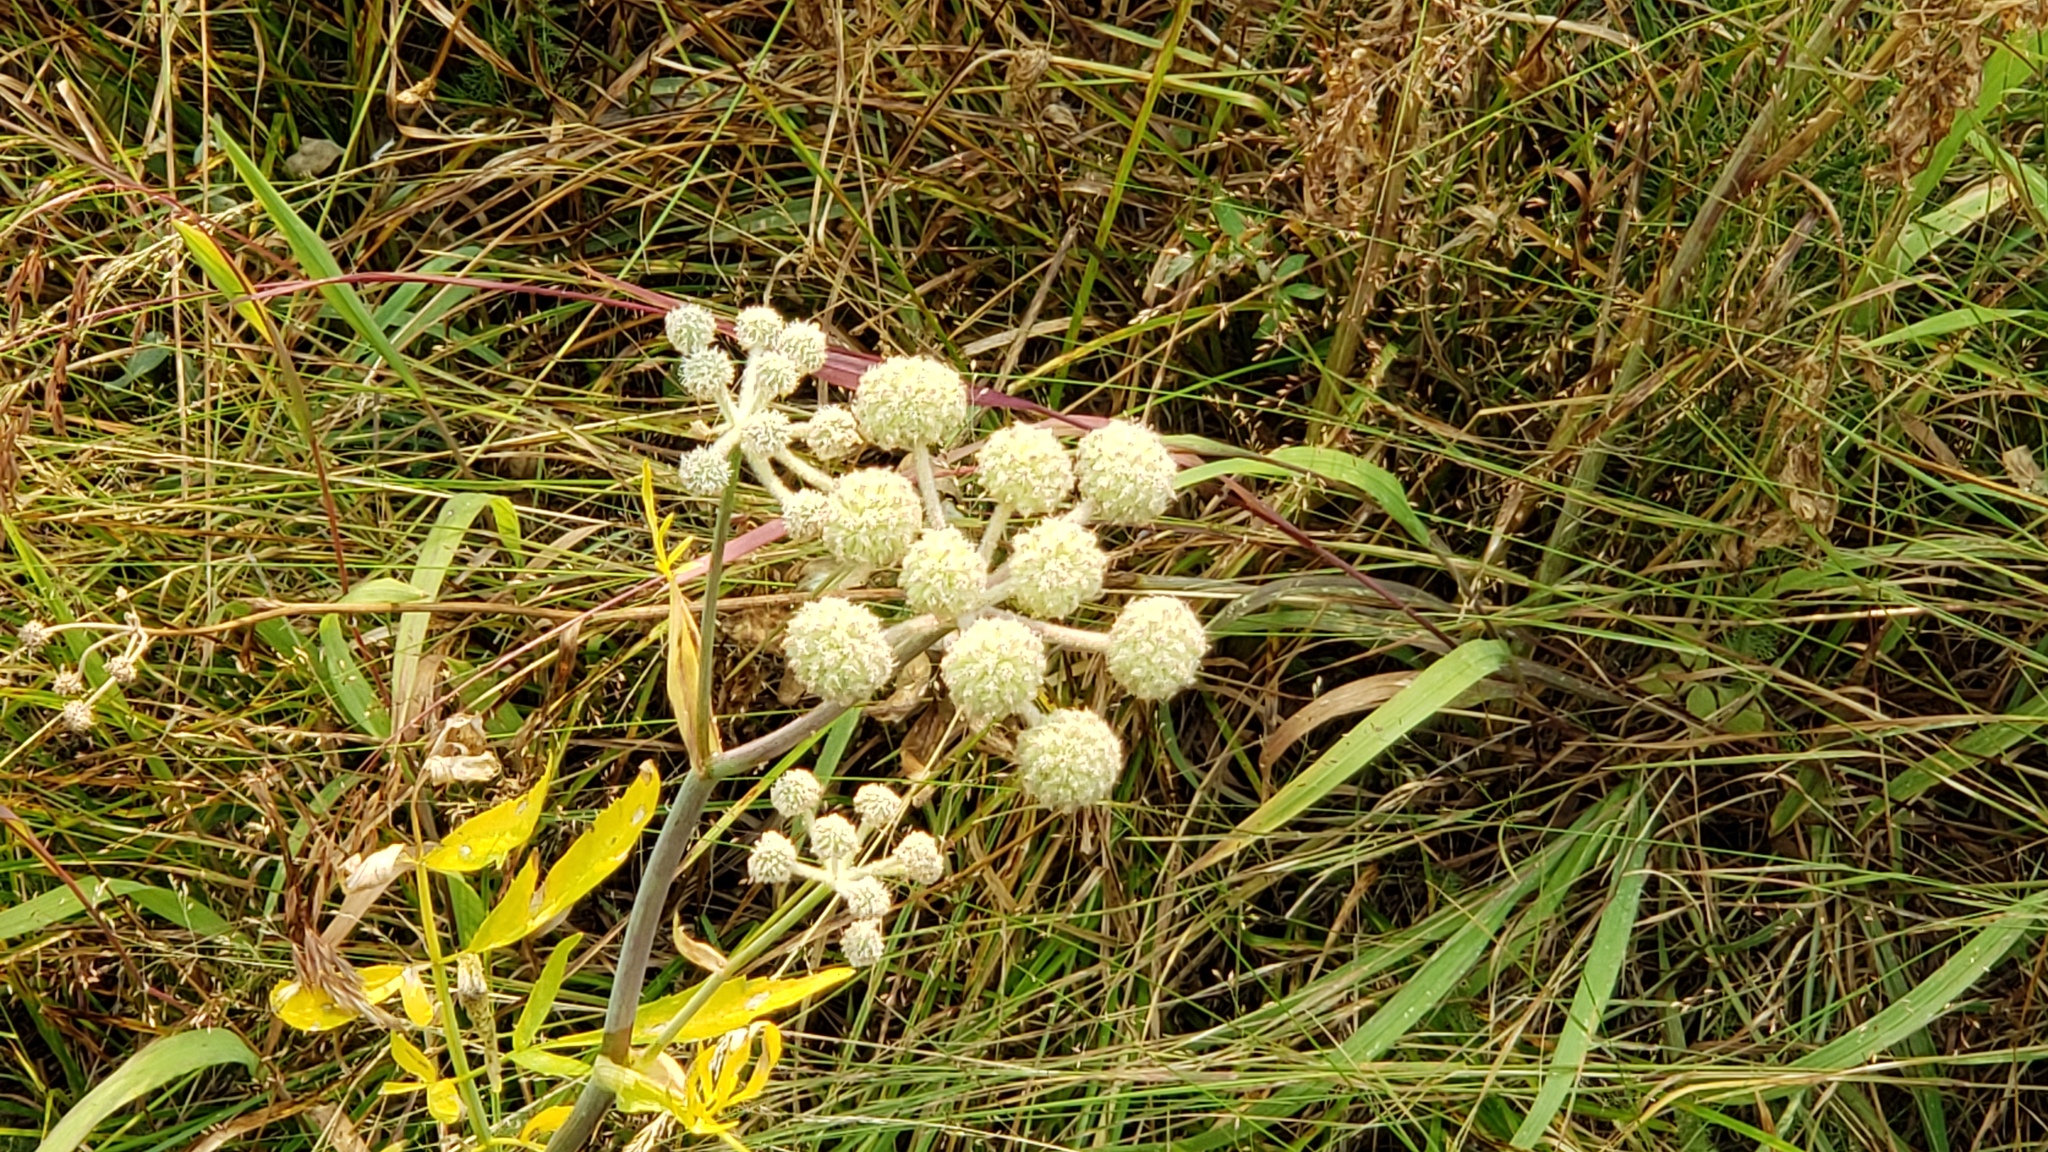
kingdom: Plantae
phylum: Tracheophyta
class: Magnoliopsida
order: Apiales
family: Apiaceae
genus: Angelica
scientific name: Angelica capitellata
